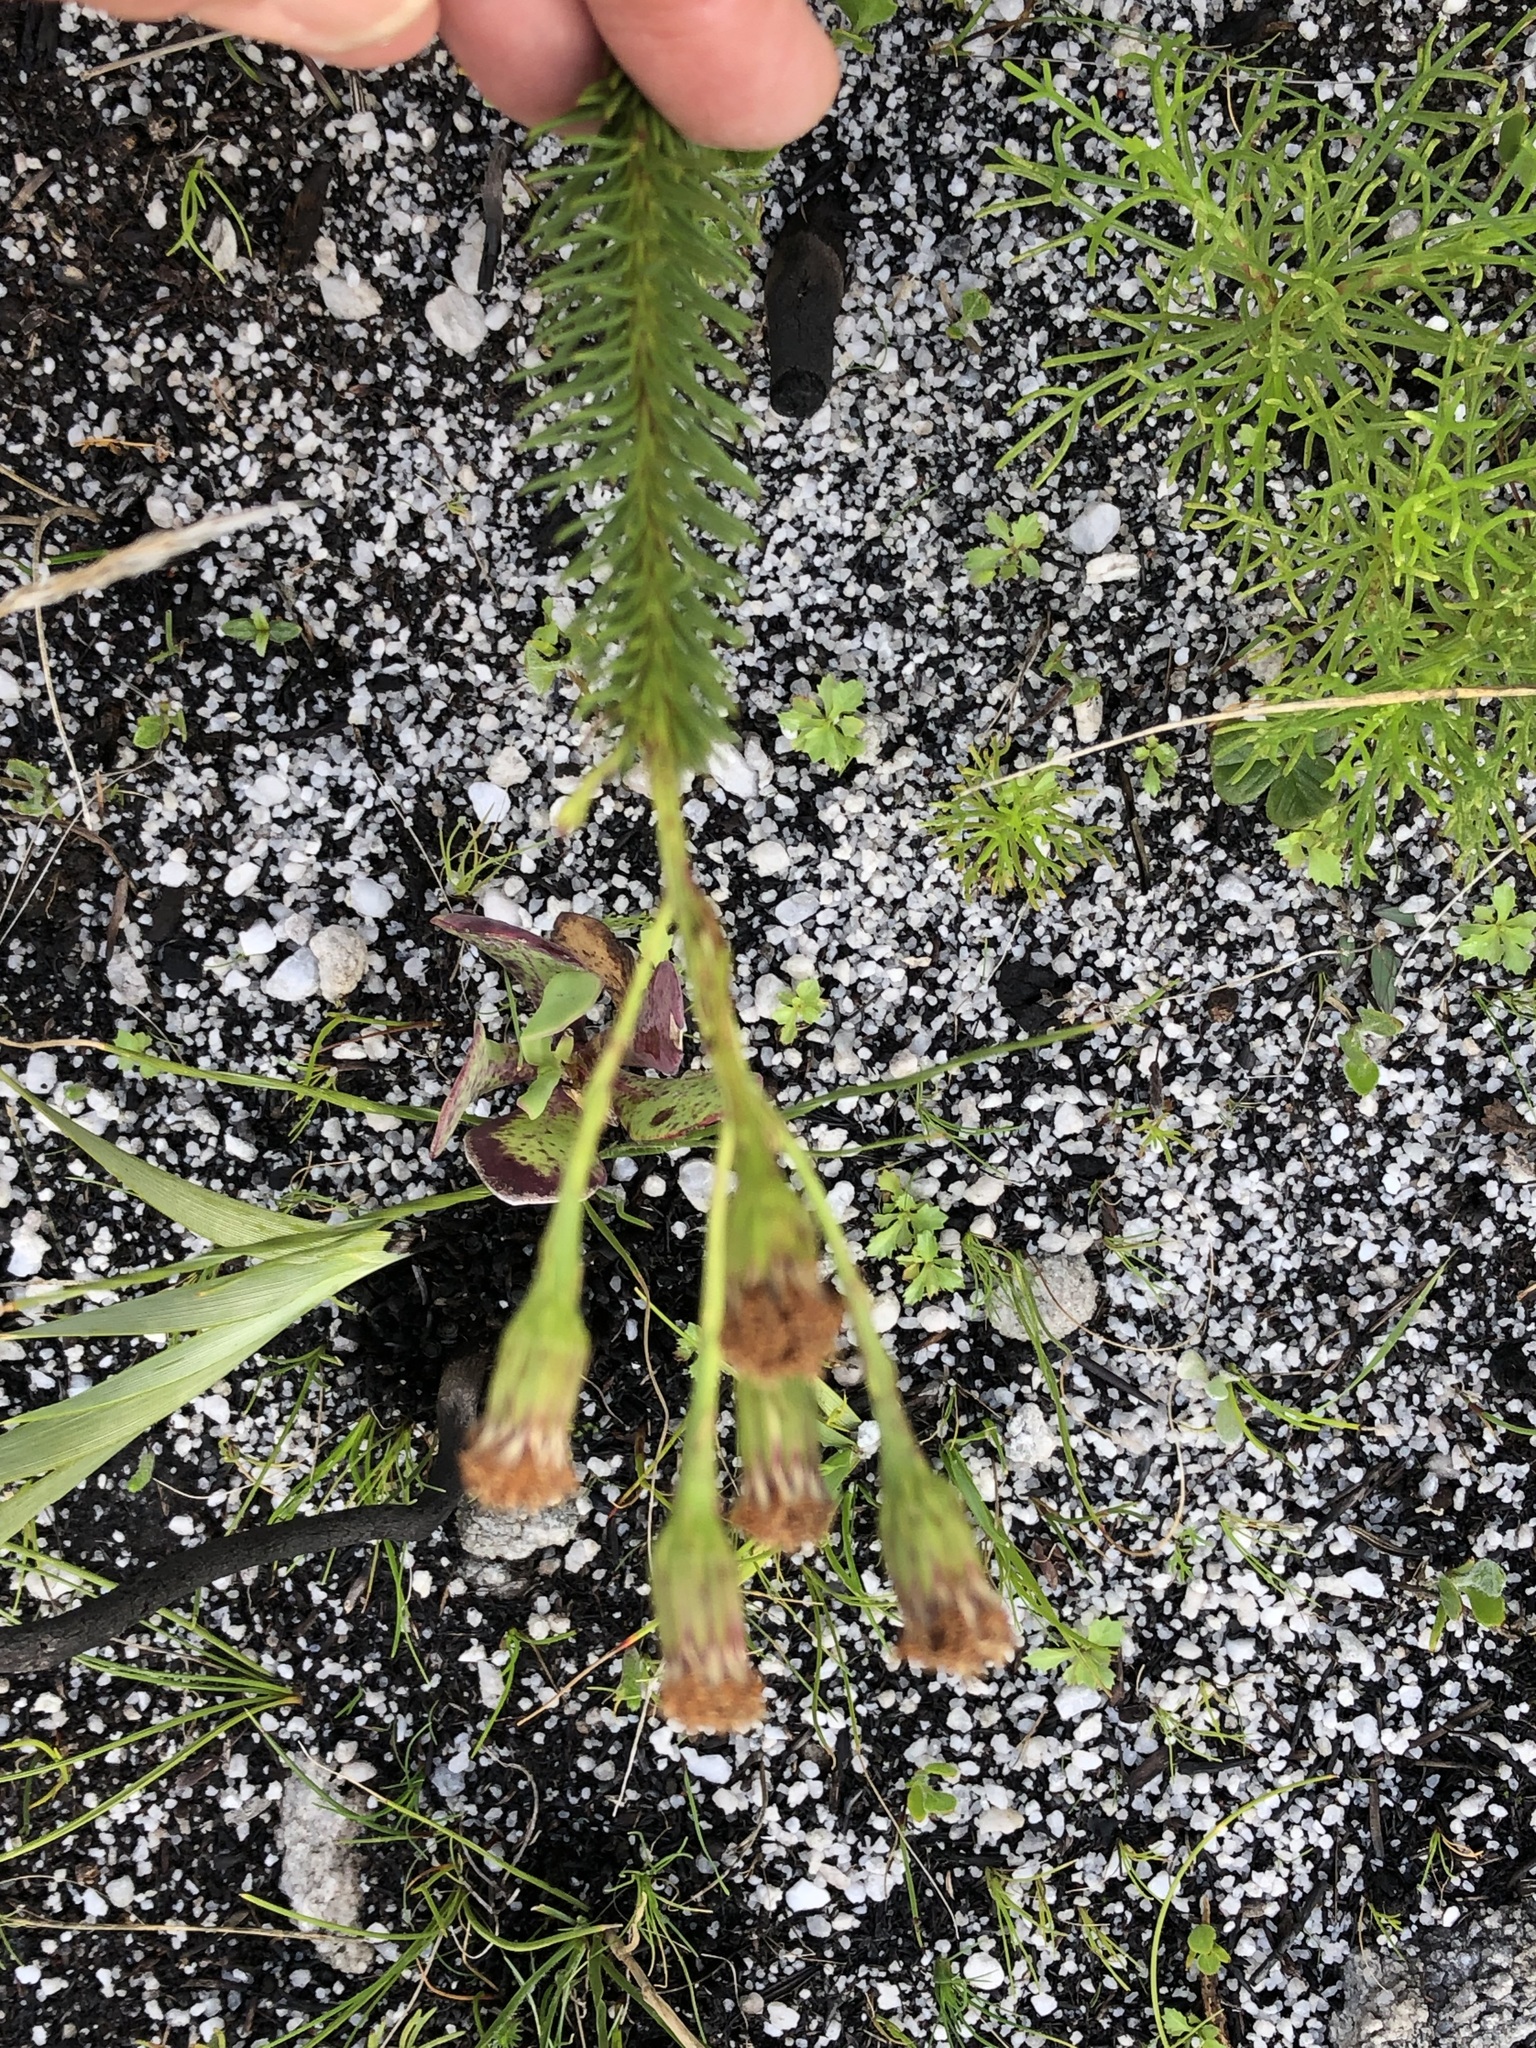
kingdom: Plantae
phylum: Tracheophyta
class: Magnoliopsida
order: Asterales
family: Asteraceae
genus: Senecio
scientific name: Senecio triqueter
